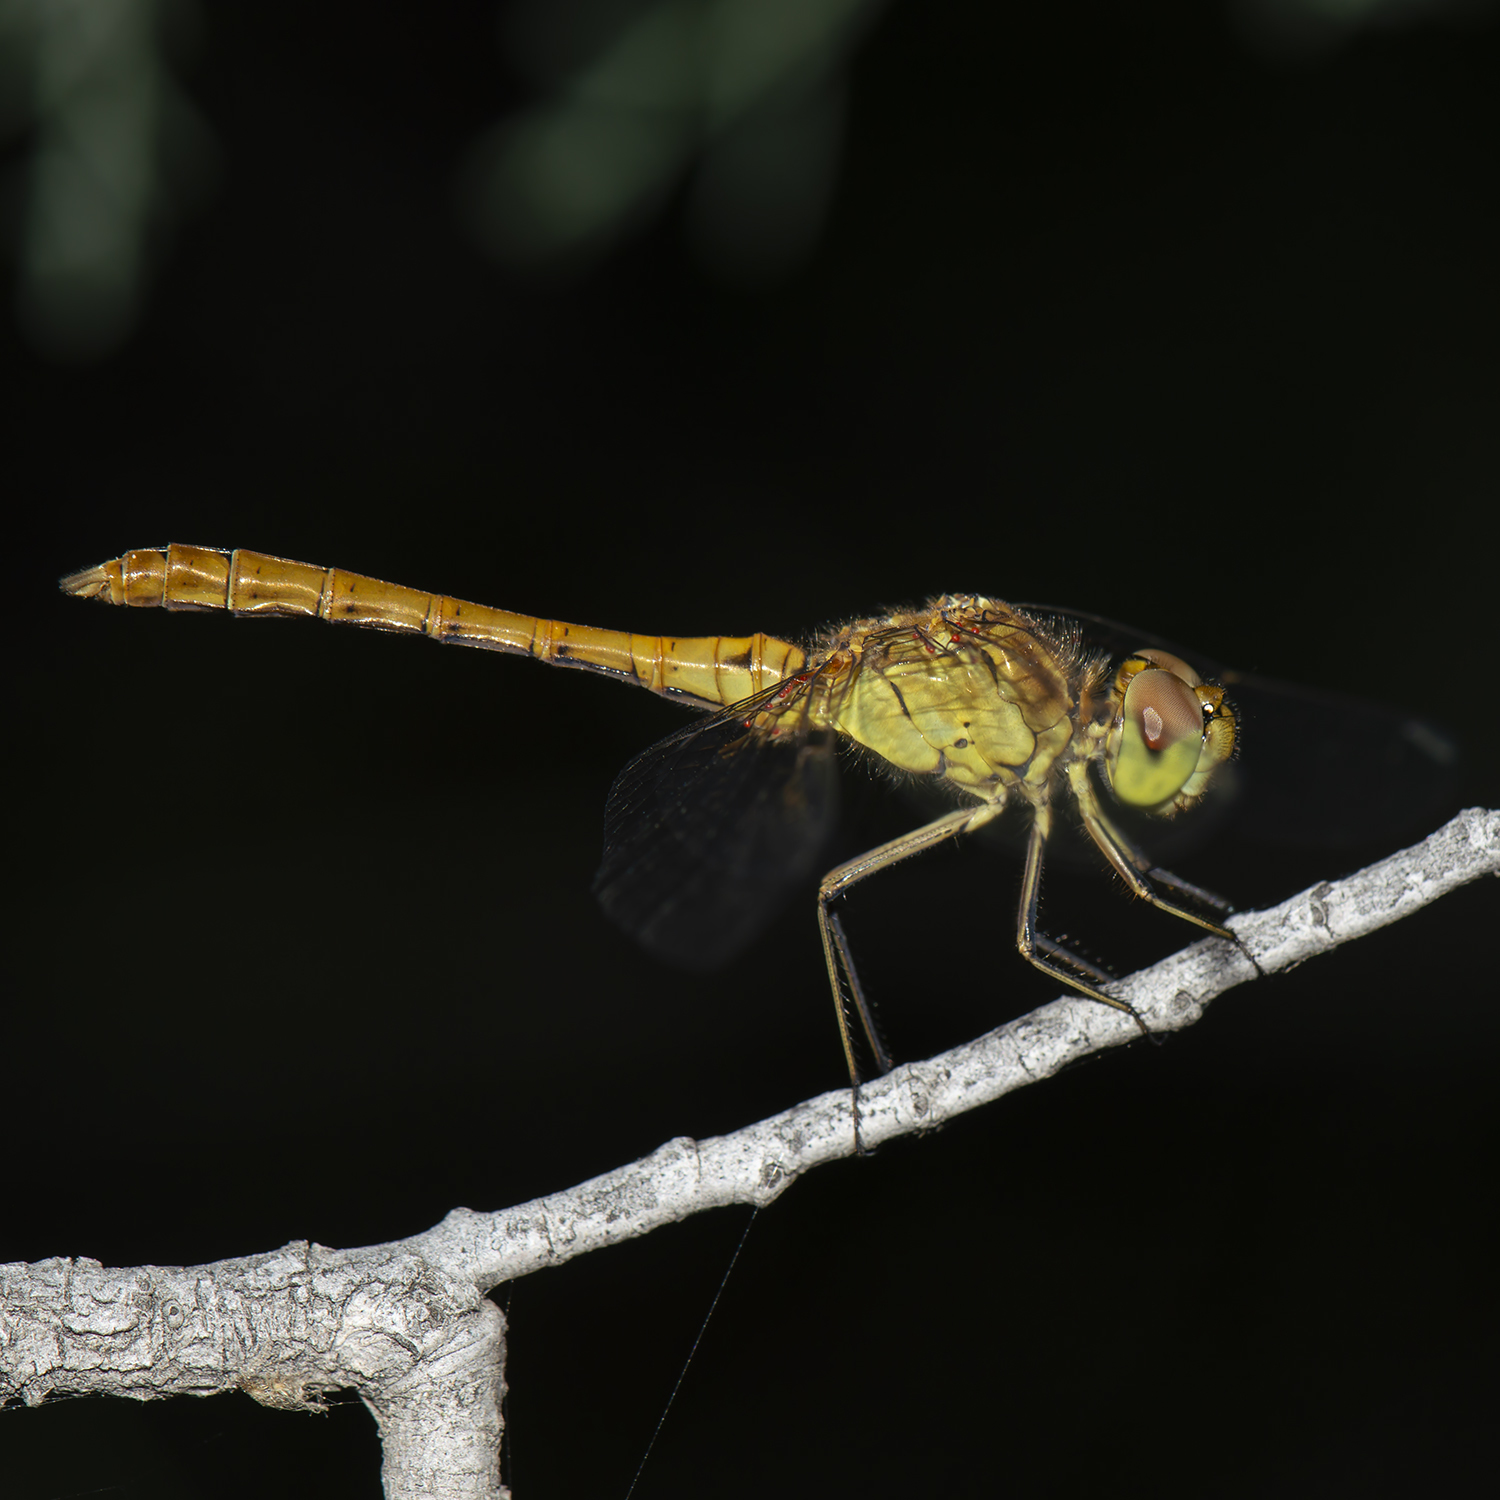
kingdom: Animalia
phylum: Arthropoda
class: Insecta
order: Odonata
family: Libellulidae
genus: Sympetrum
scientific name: Sympetrum meridionale
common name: Southern darter
